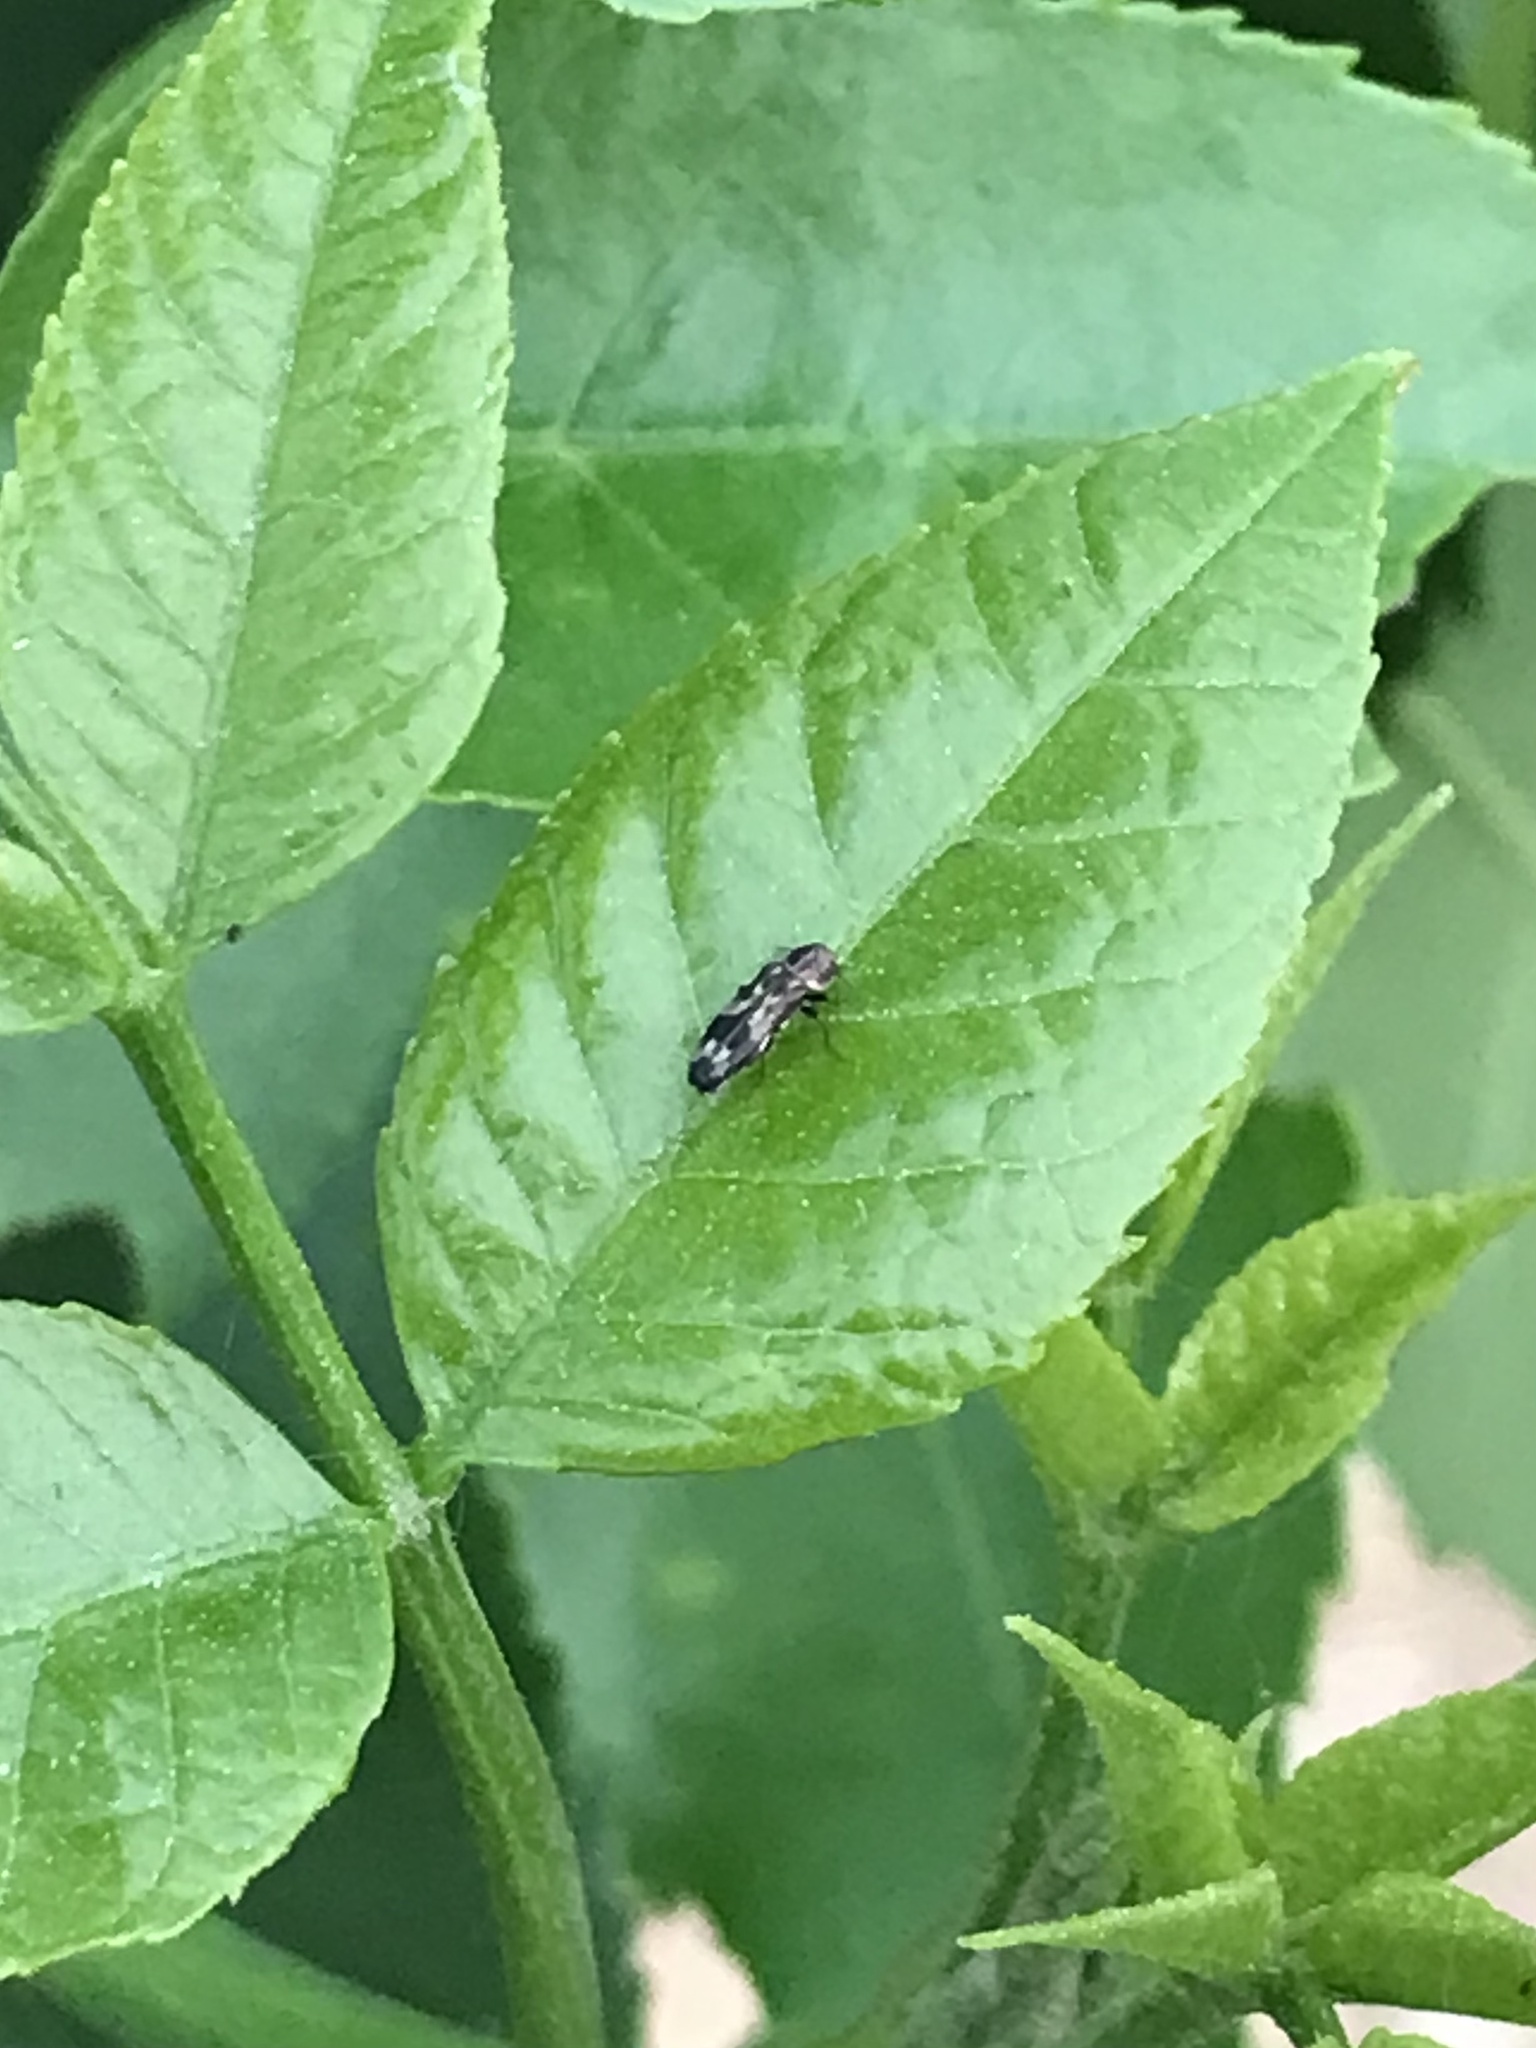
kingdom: Animalia
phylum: Arthropoda
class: Insecta
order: Coleoptera
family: Buprestidae
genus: Agrilus
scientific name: Agrilus subcinctus
